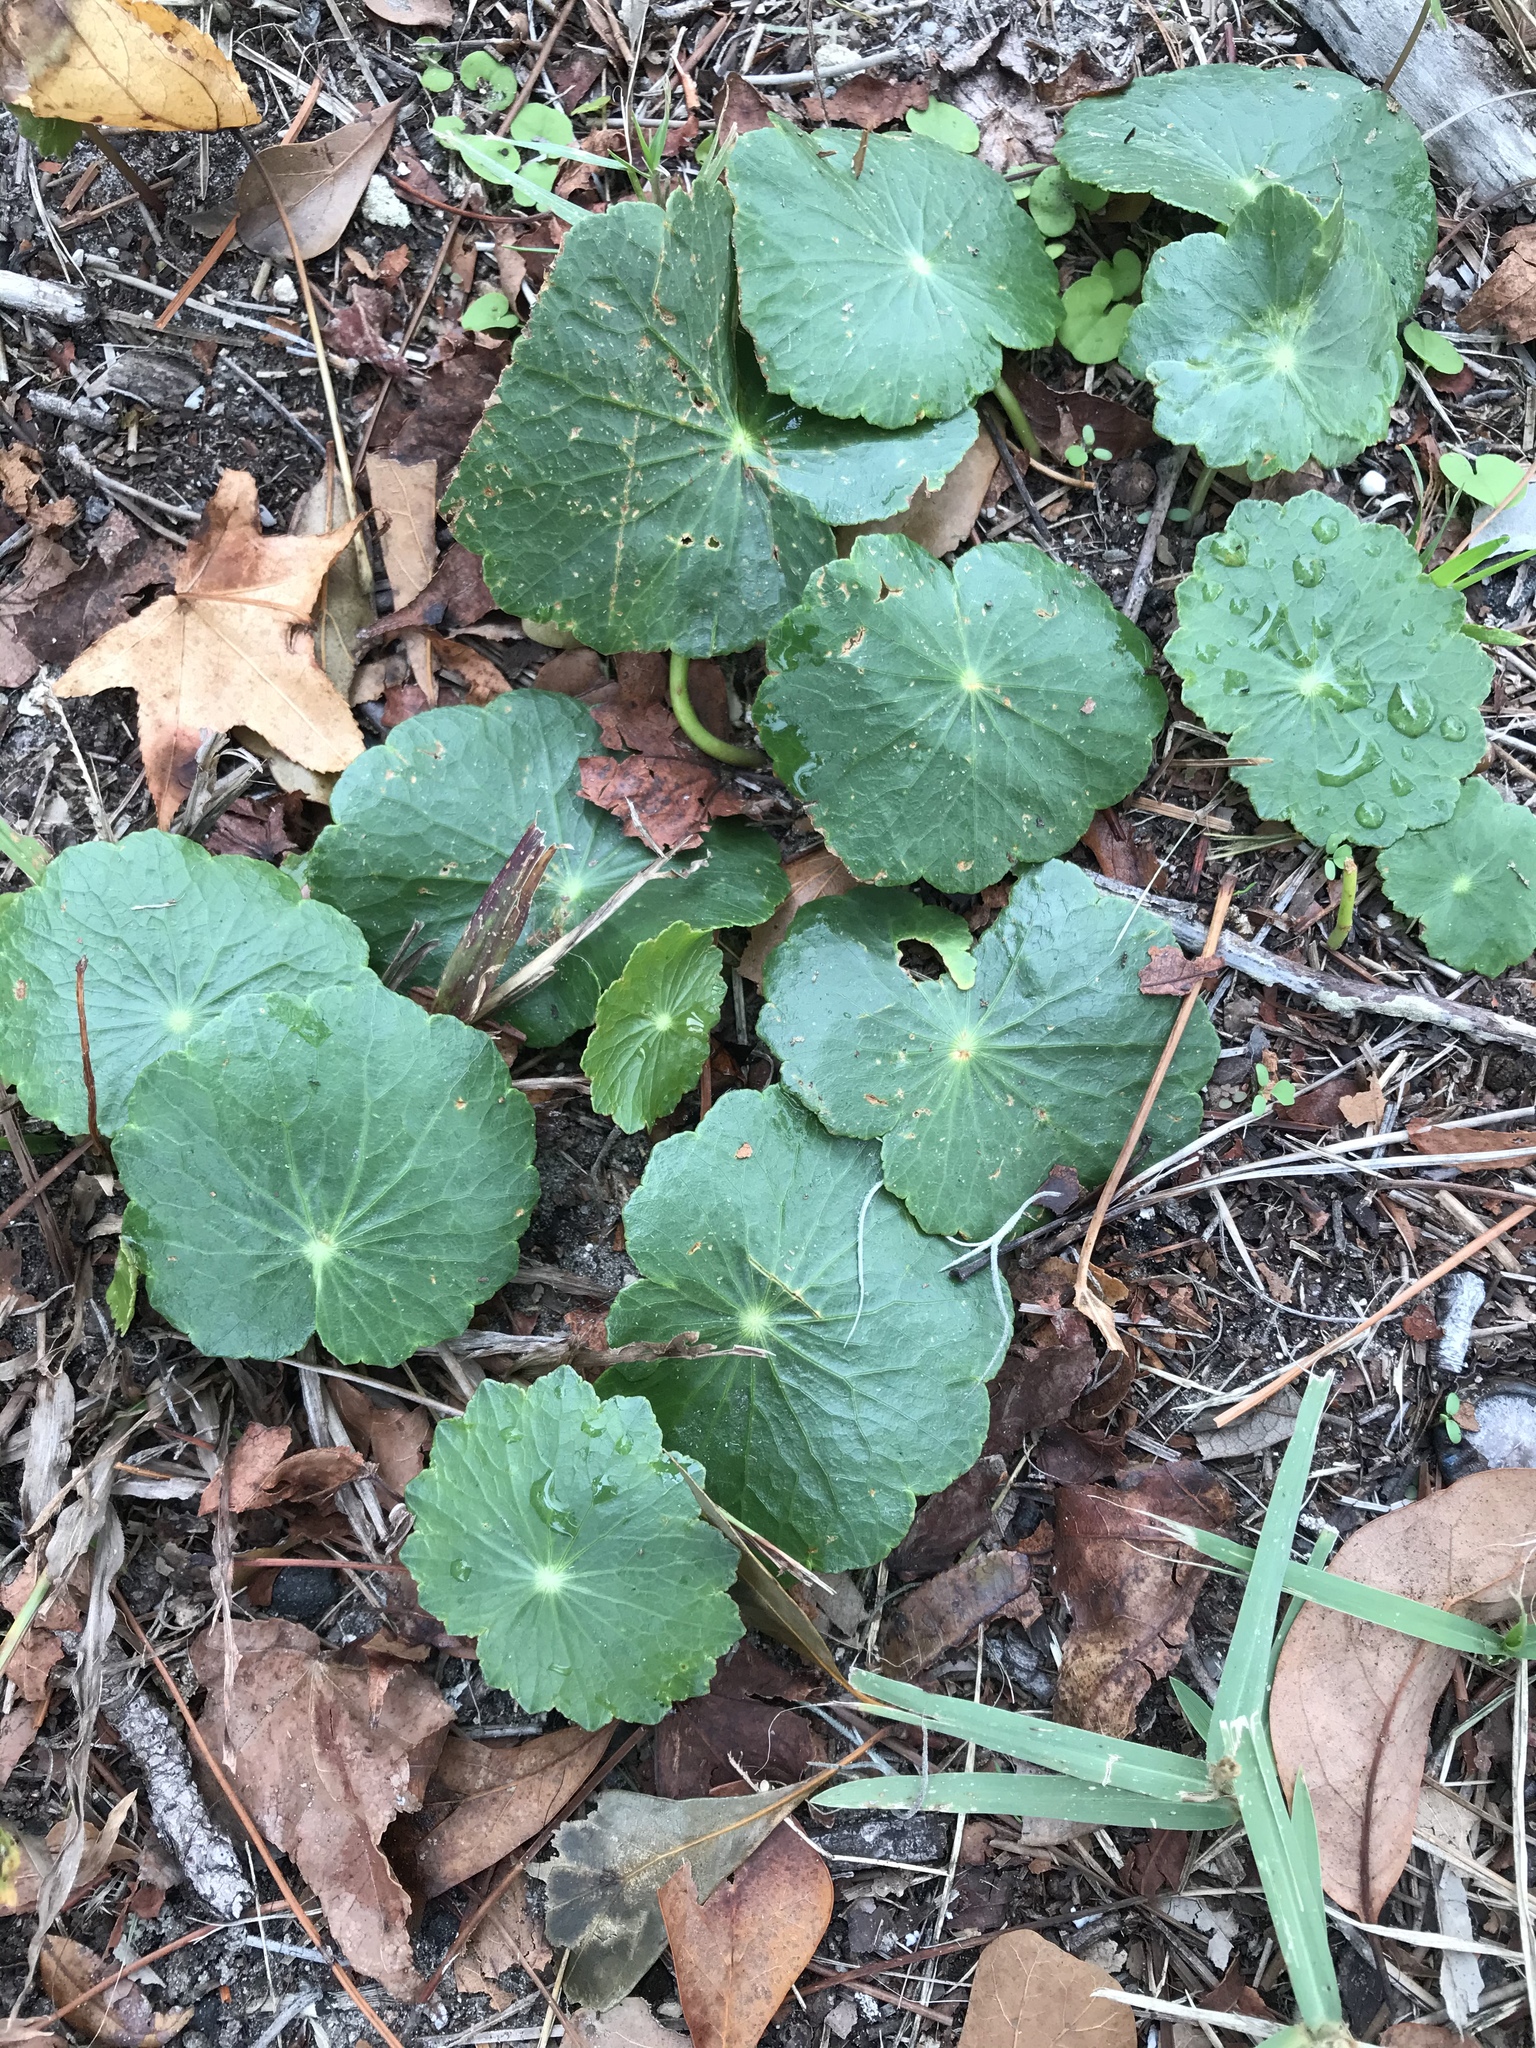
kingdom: Plantae
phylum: Tracheophyta
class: Magnoliopsida
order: Apiales
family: Araliaceae
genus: Hydrocotyle
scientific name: Hydrocotyle bonariensis
